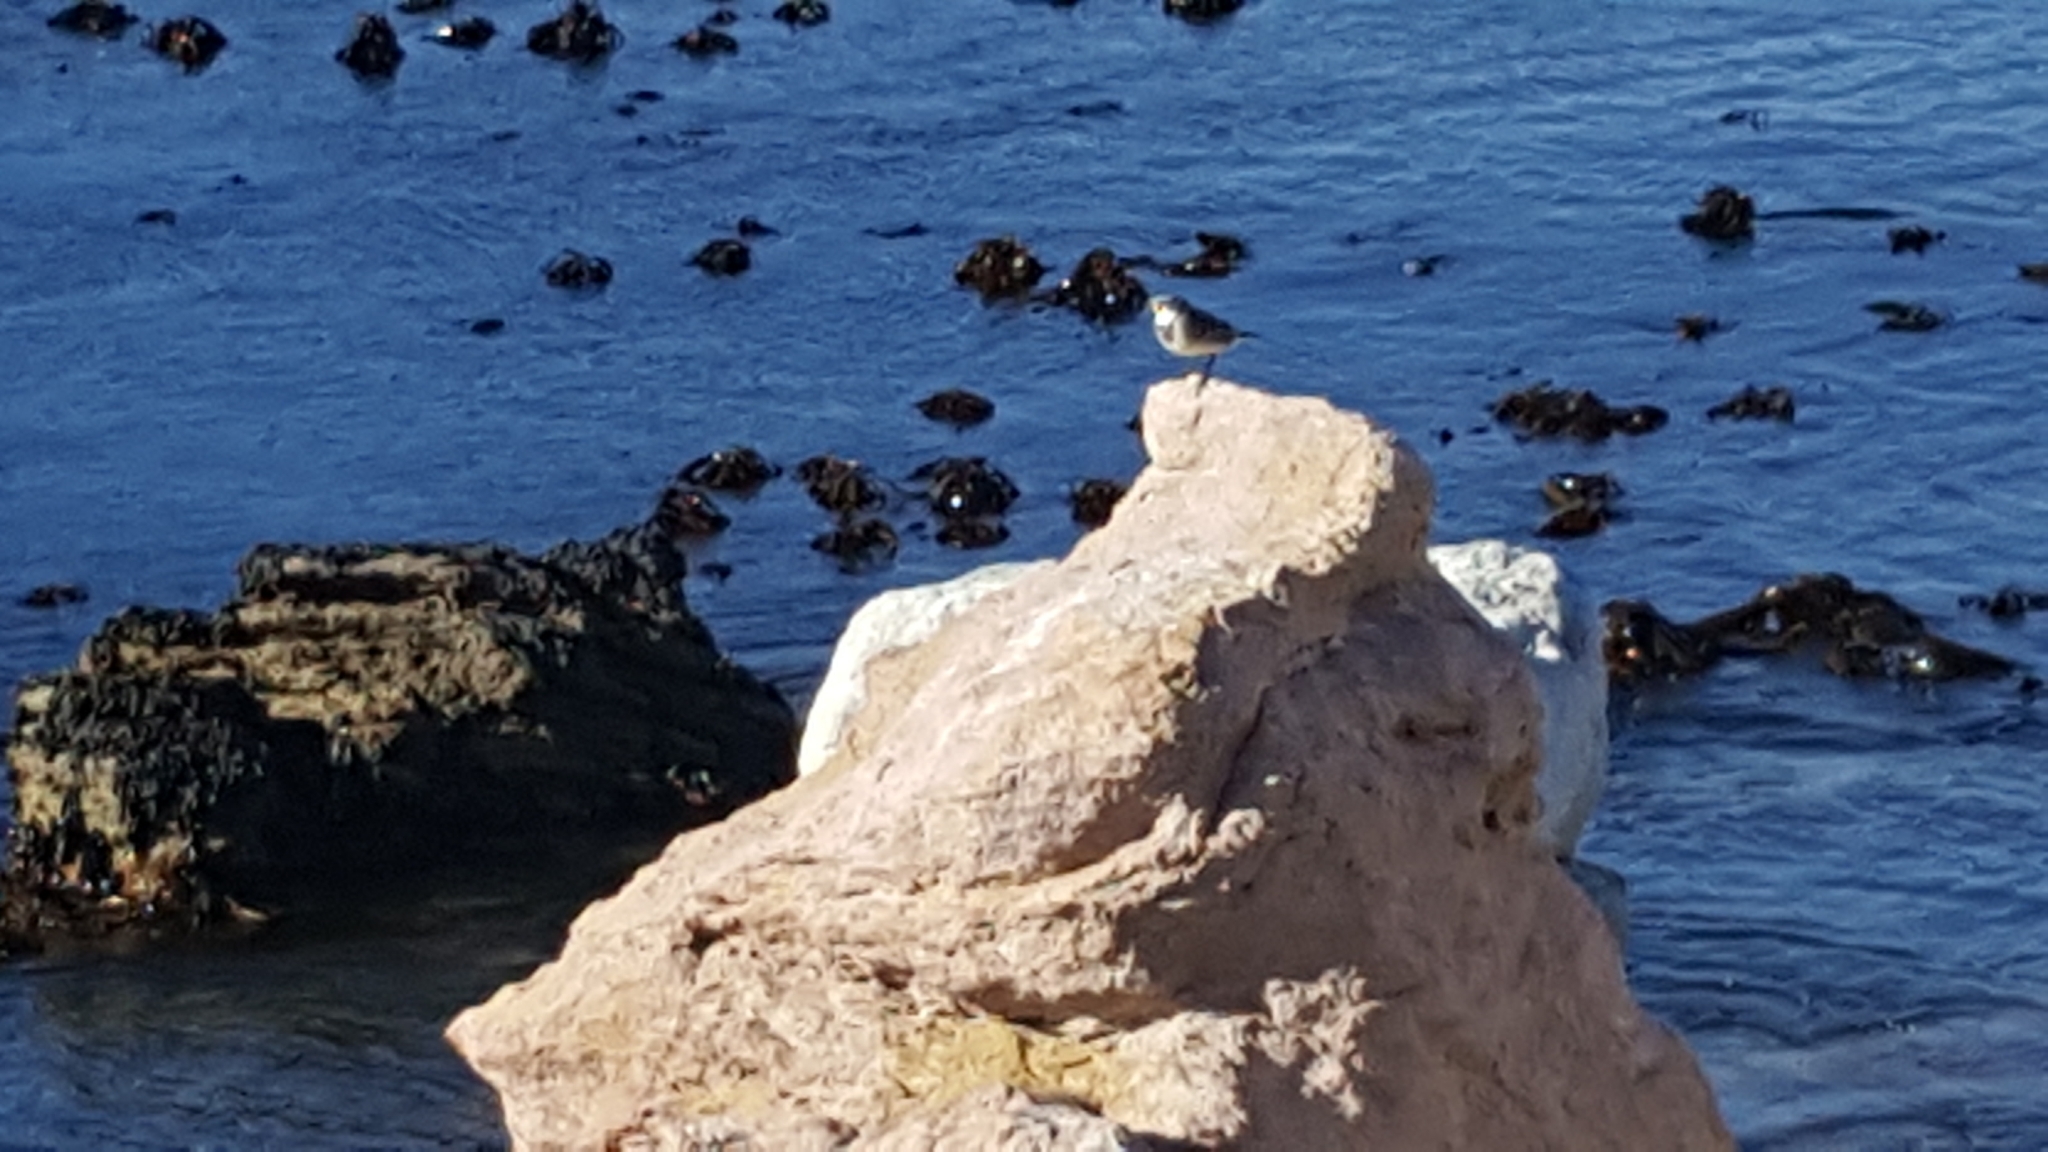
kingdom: Animalia
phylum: Chordata
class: Aves
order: Passeriformes
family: Motacillidae
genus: Motacilla
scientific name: Motacilla capensis
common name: Cape wagtail
